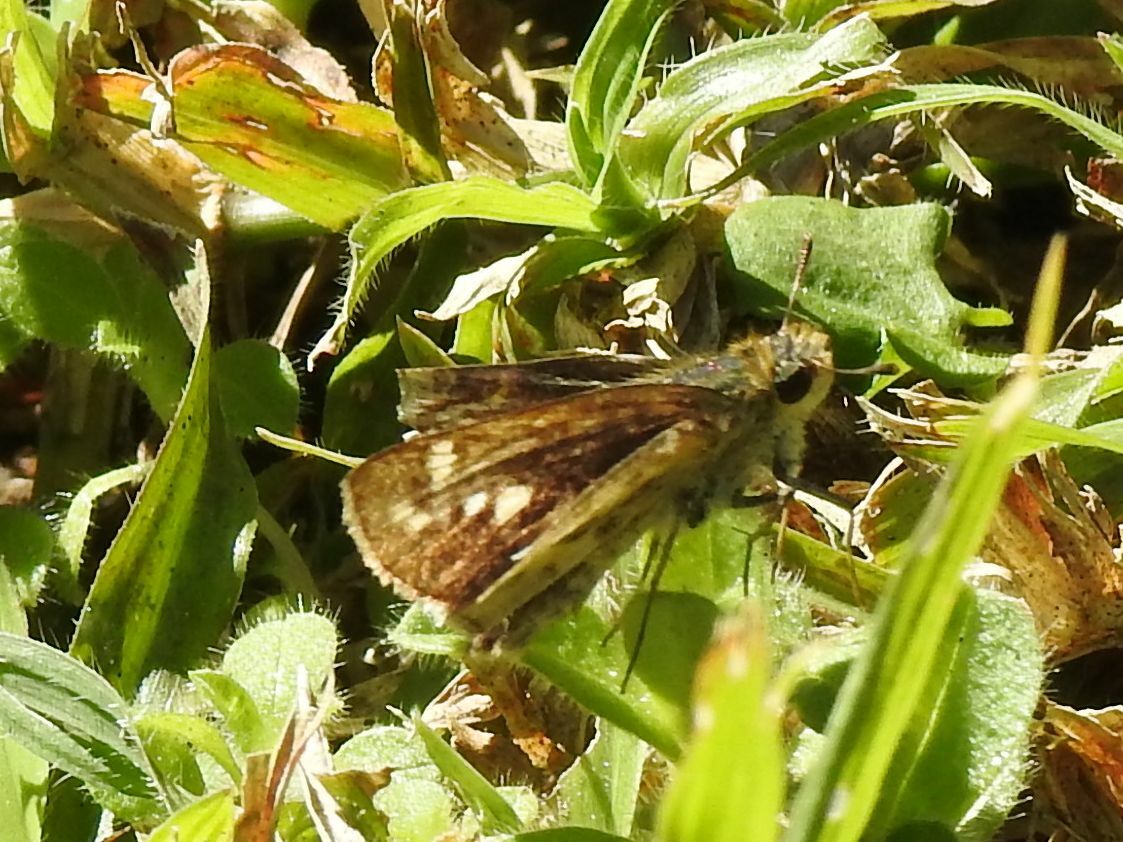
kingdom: Animalia
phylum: Arthropoda
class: Insecta
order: Hymenoptera
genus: Afrogenes
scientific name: Afrogenes
